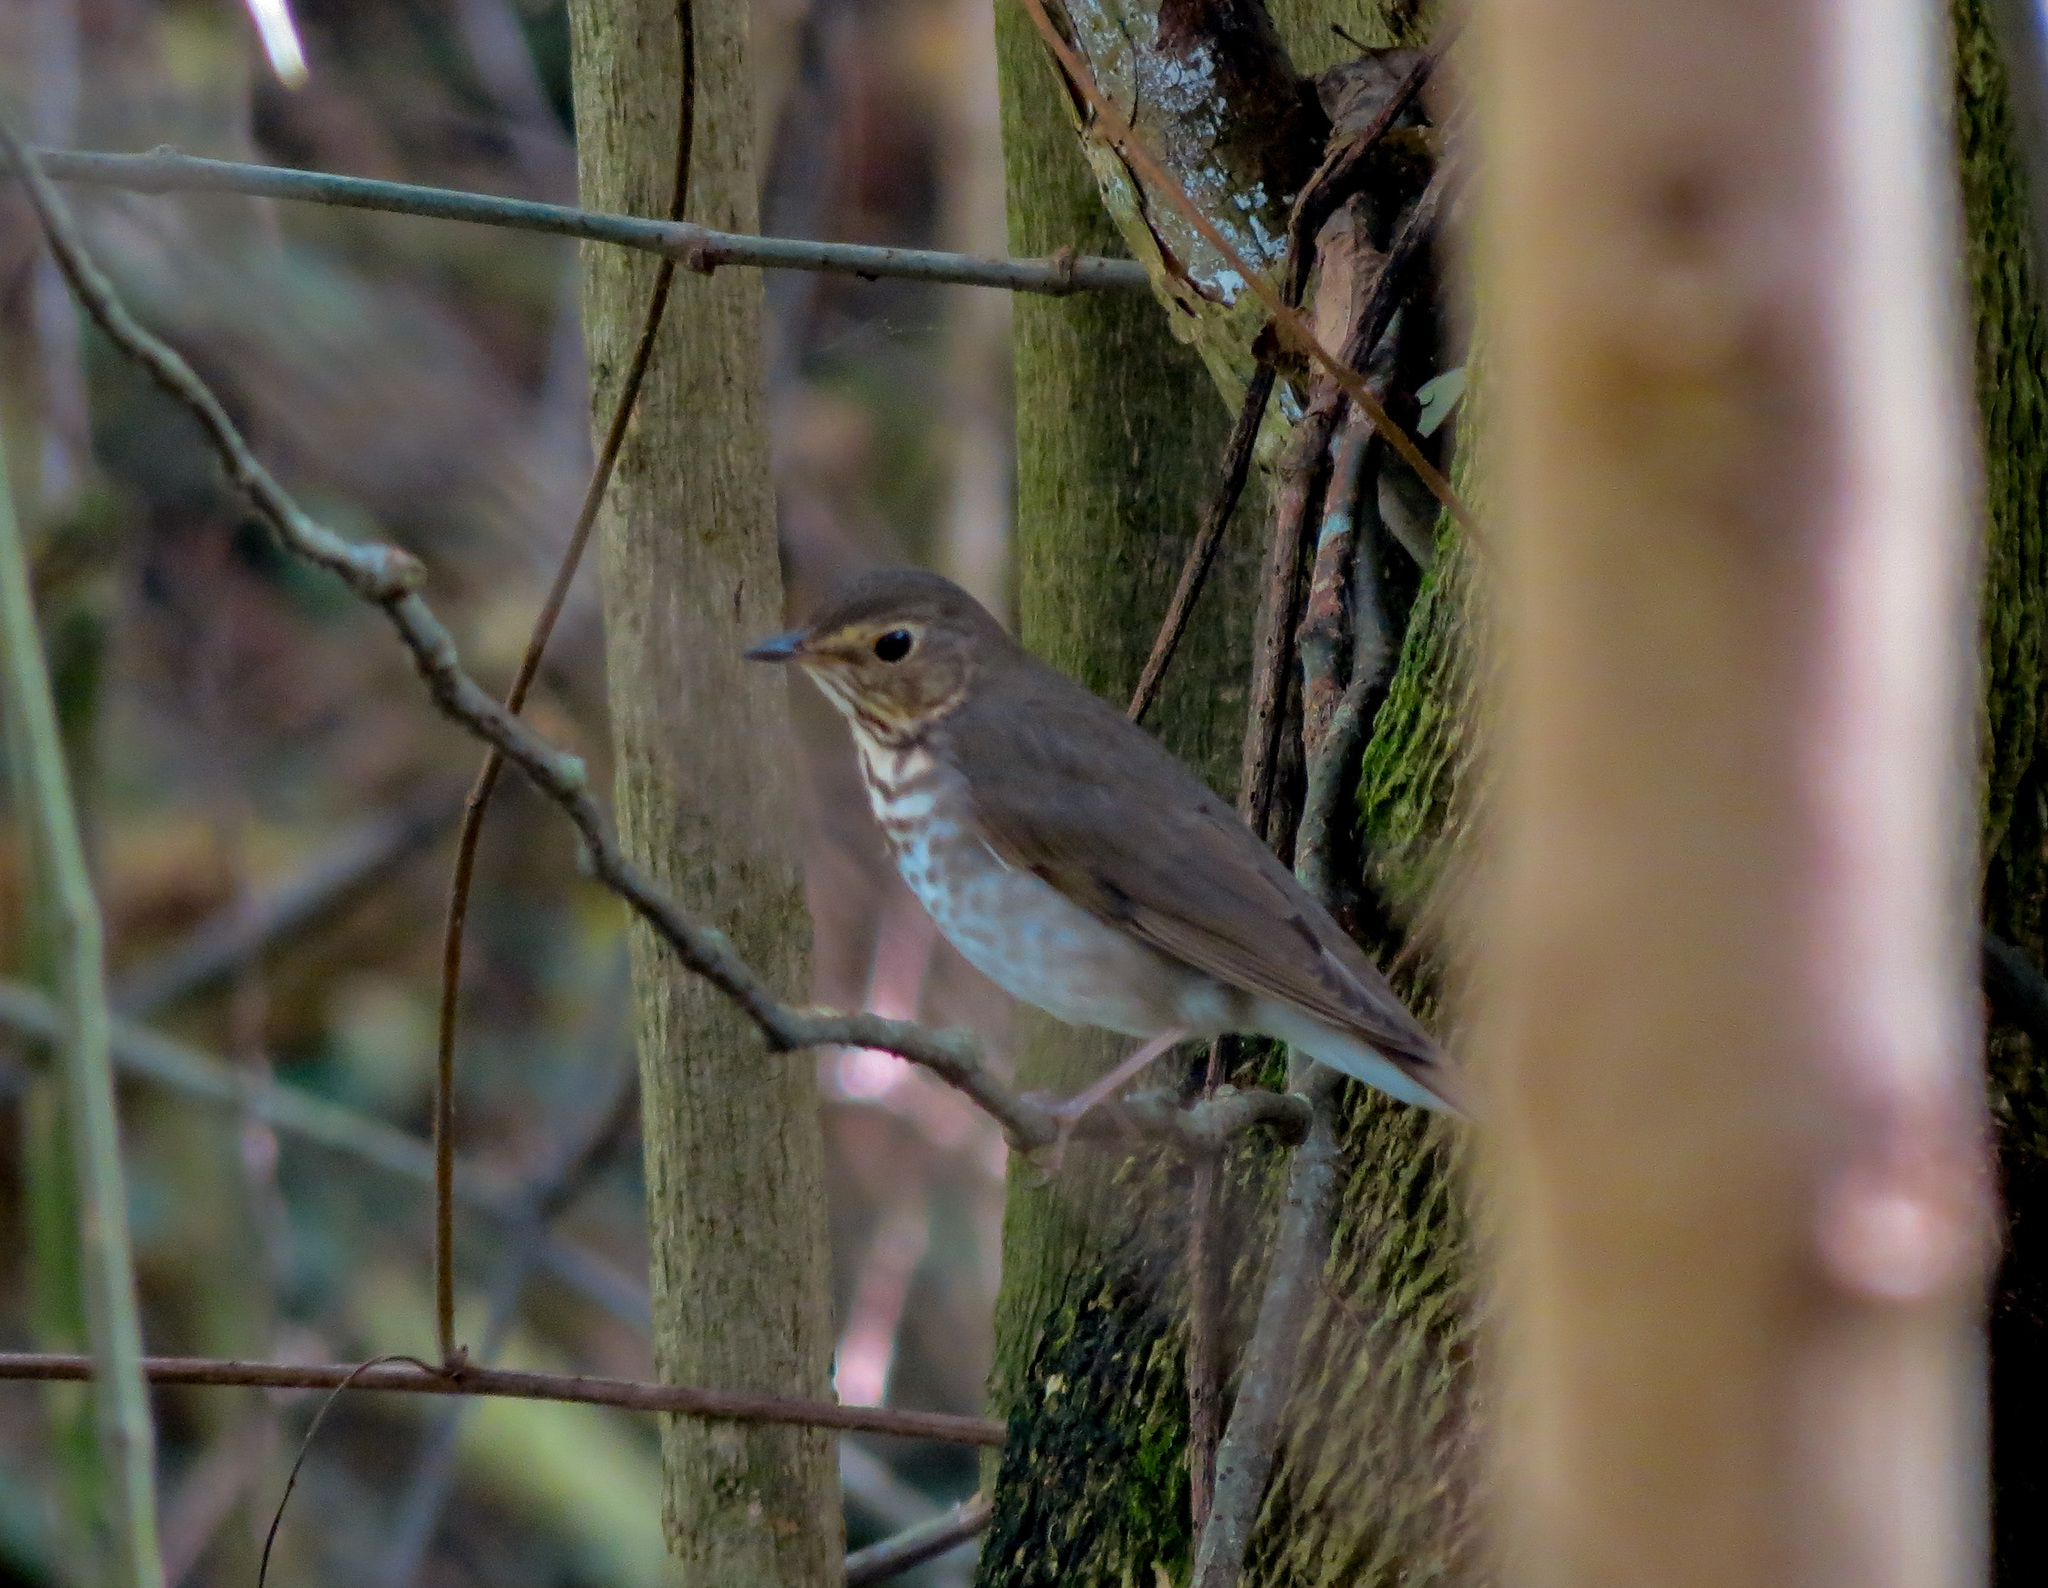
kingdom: Animalia
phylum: Chordata
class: Aves
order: Passeriformes
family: Turdidae
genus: Catharus
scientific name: Catharus ustulatus
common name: Swainson's thrush
